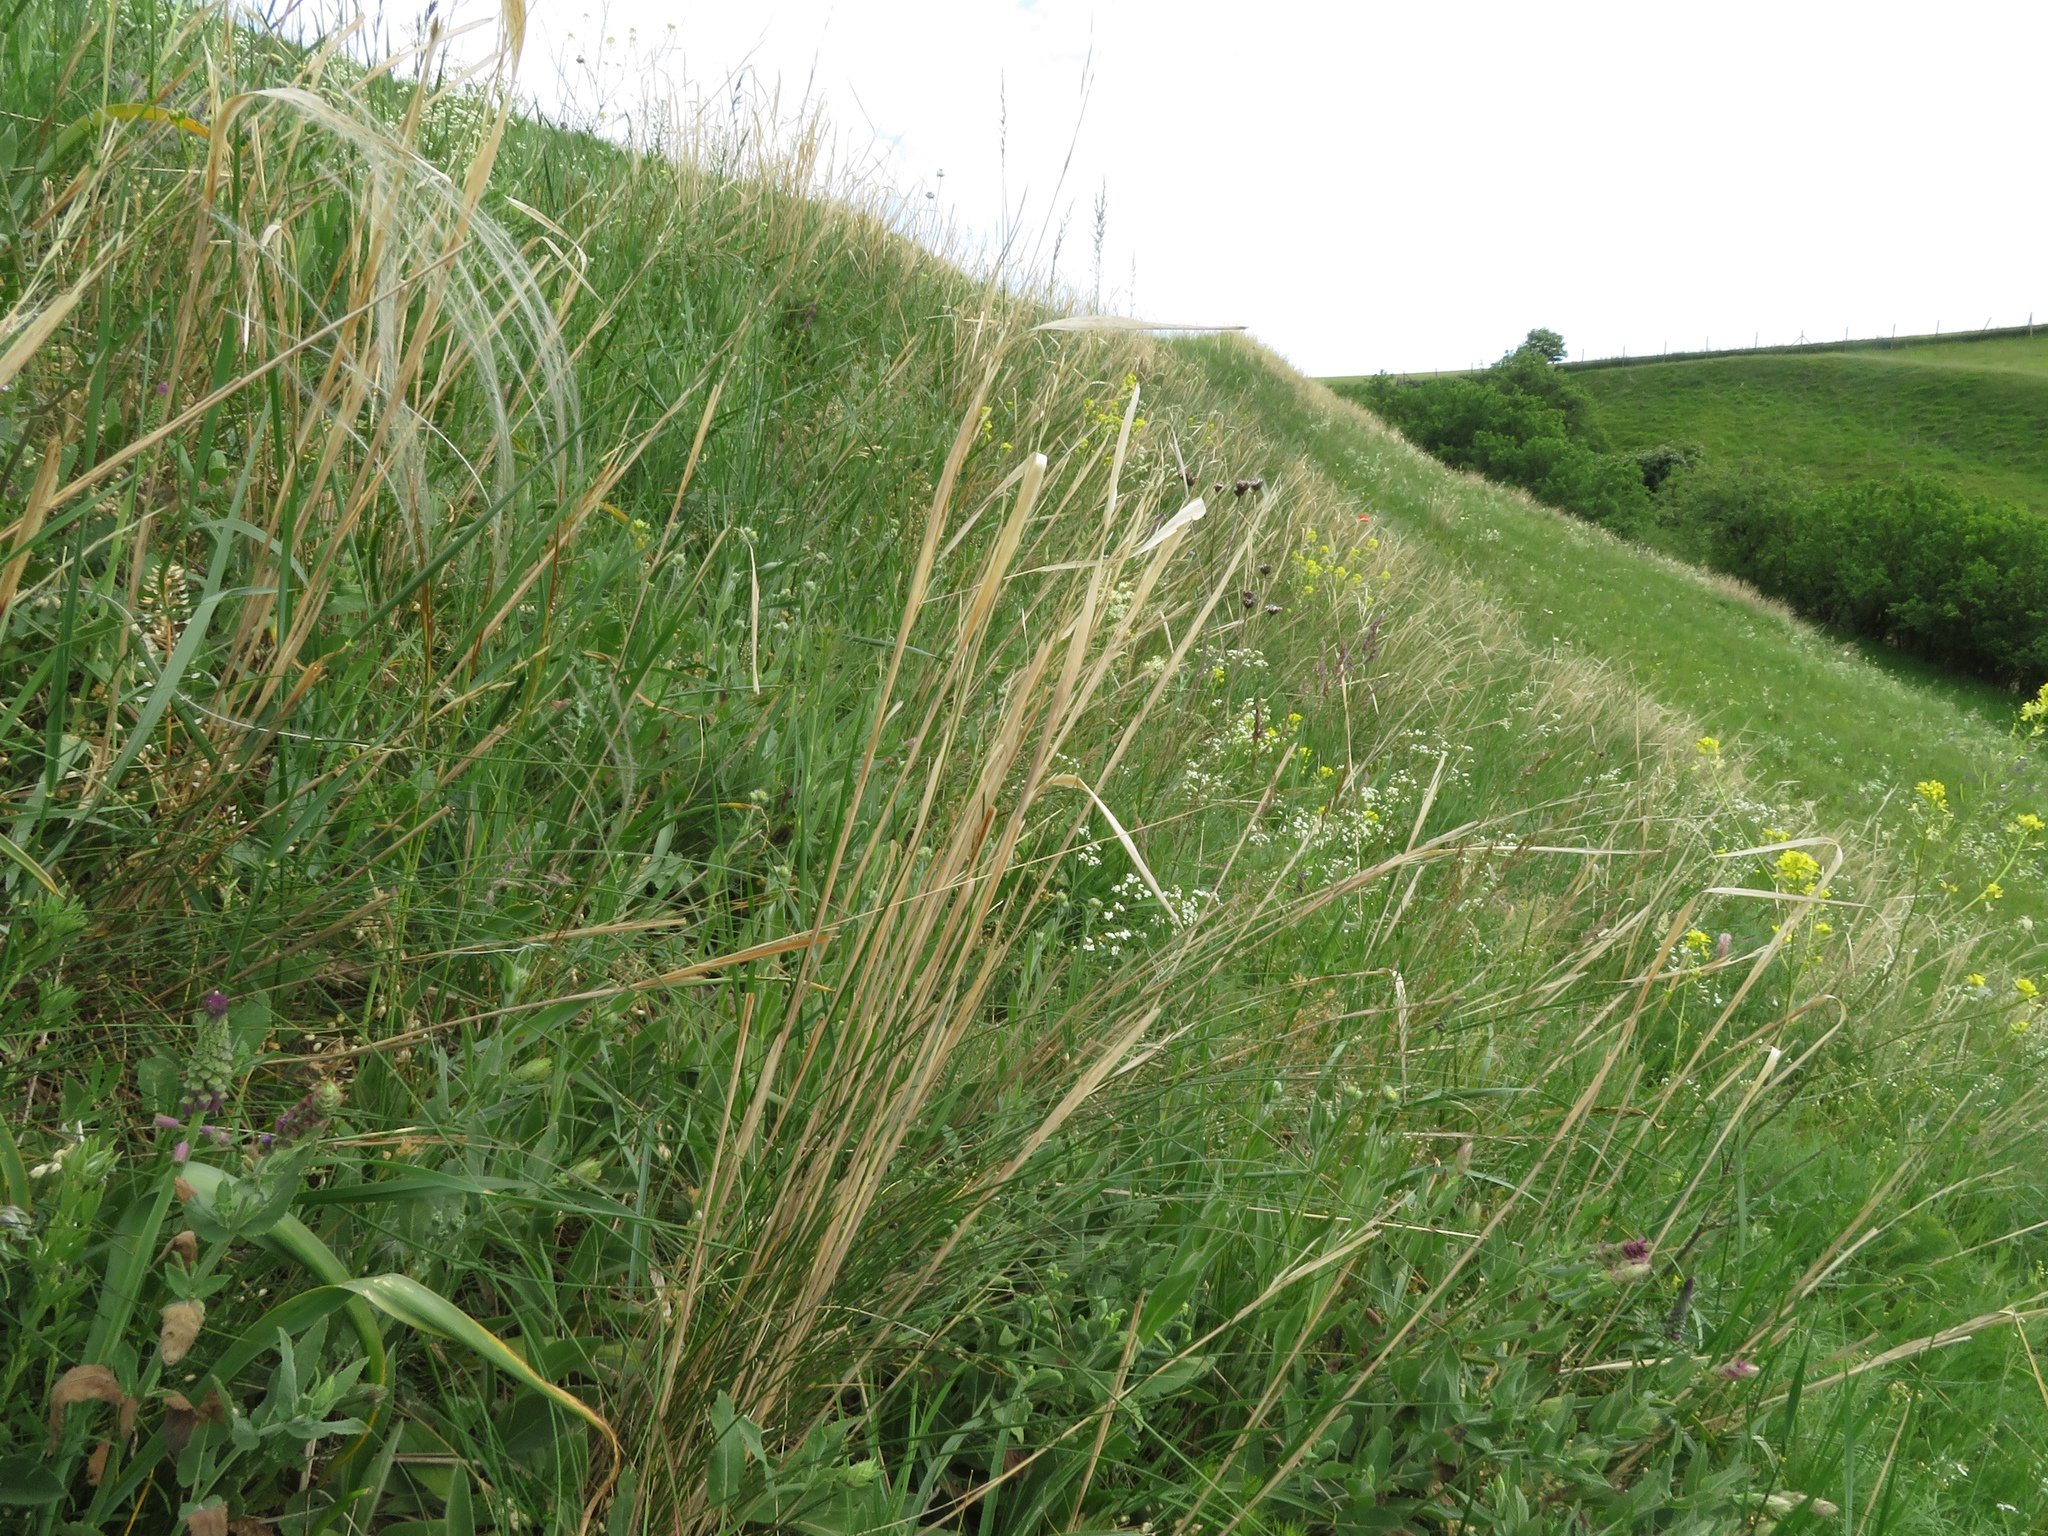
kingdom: Plantae
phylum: Tracheophyta
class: Liliopsida
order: Poales
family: Poaceae
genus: Stipa
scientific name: Stipa capillata
